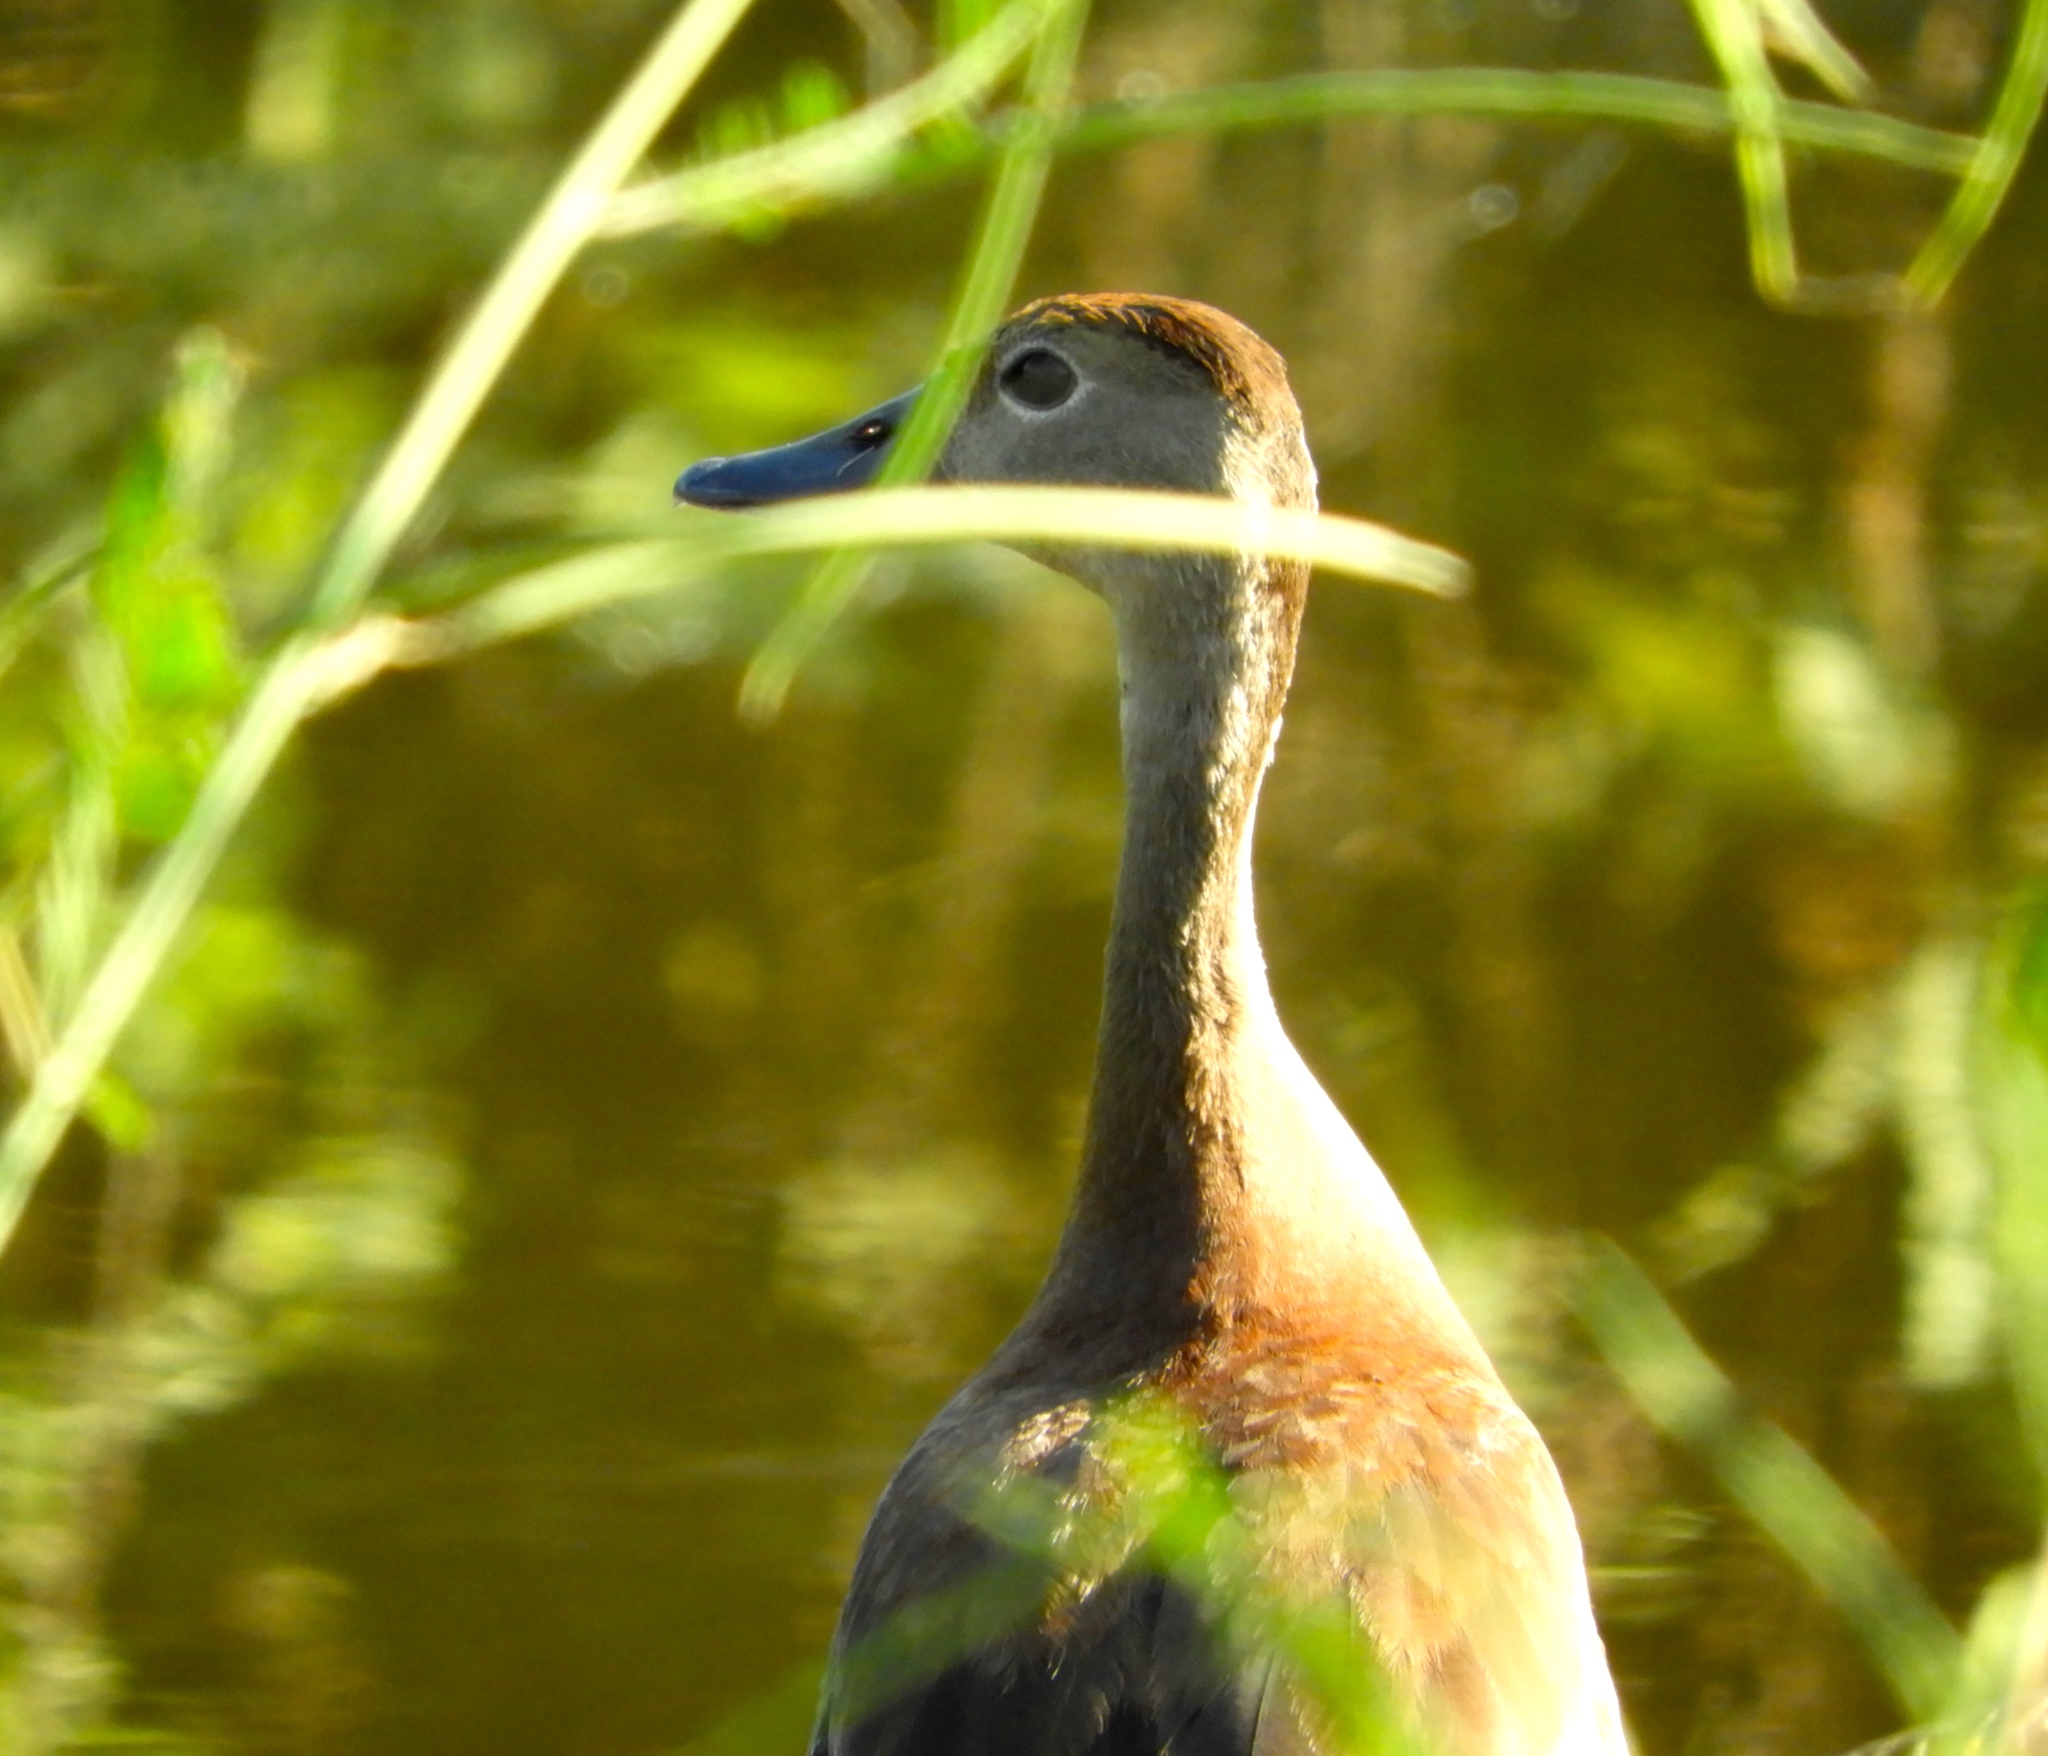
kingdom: Animalia
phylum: Chordata
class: Aves
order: Anseriformes
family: Anatidae
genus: Dendrocygna
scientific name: Dendrocygna autumnalis
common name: Black-bellied whistling duck
